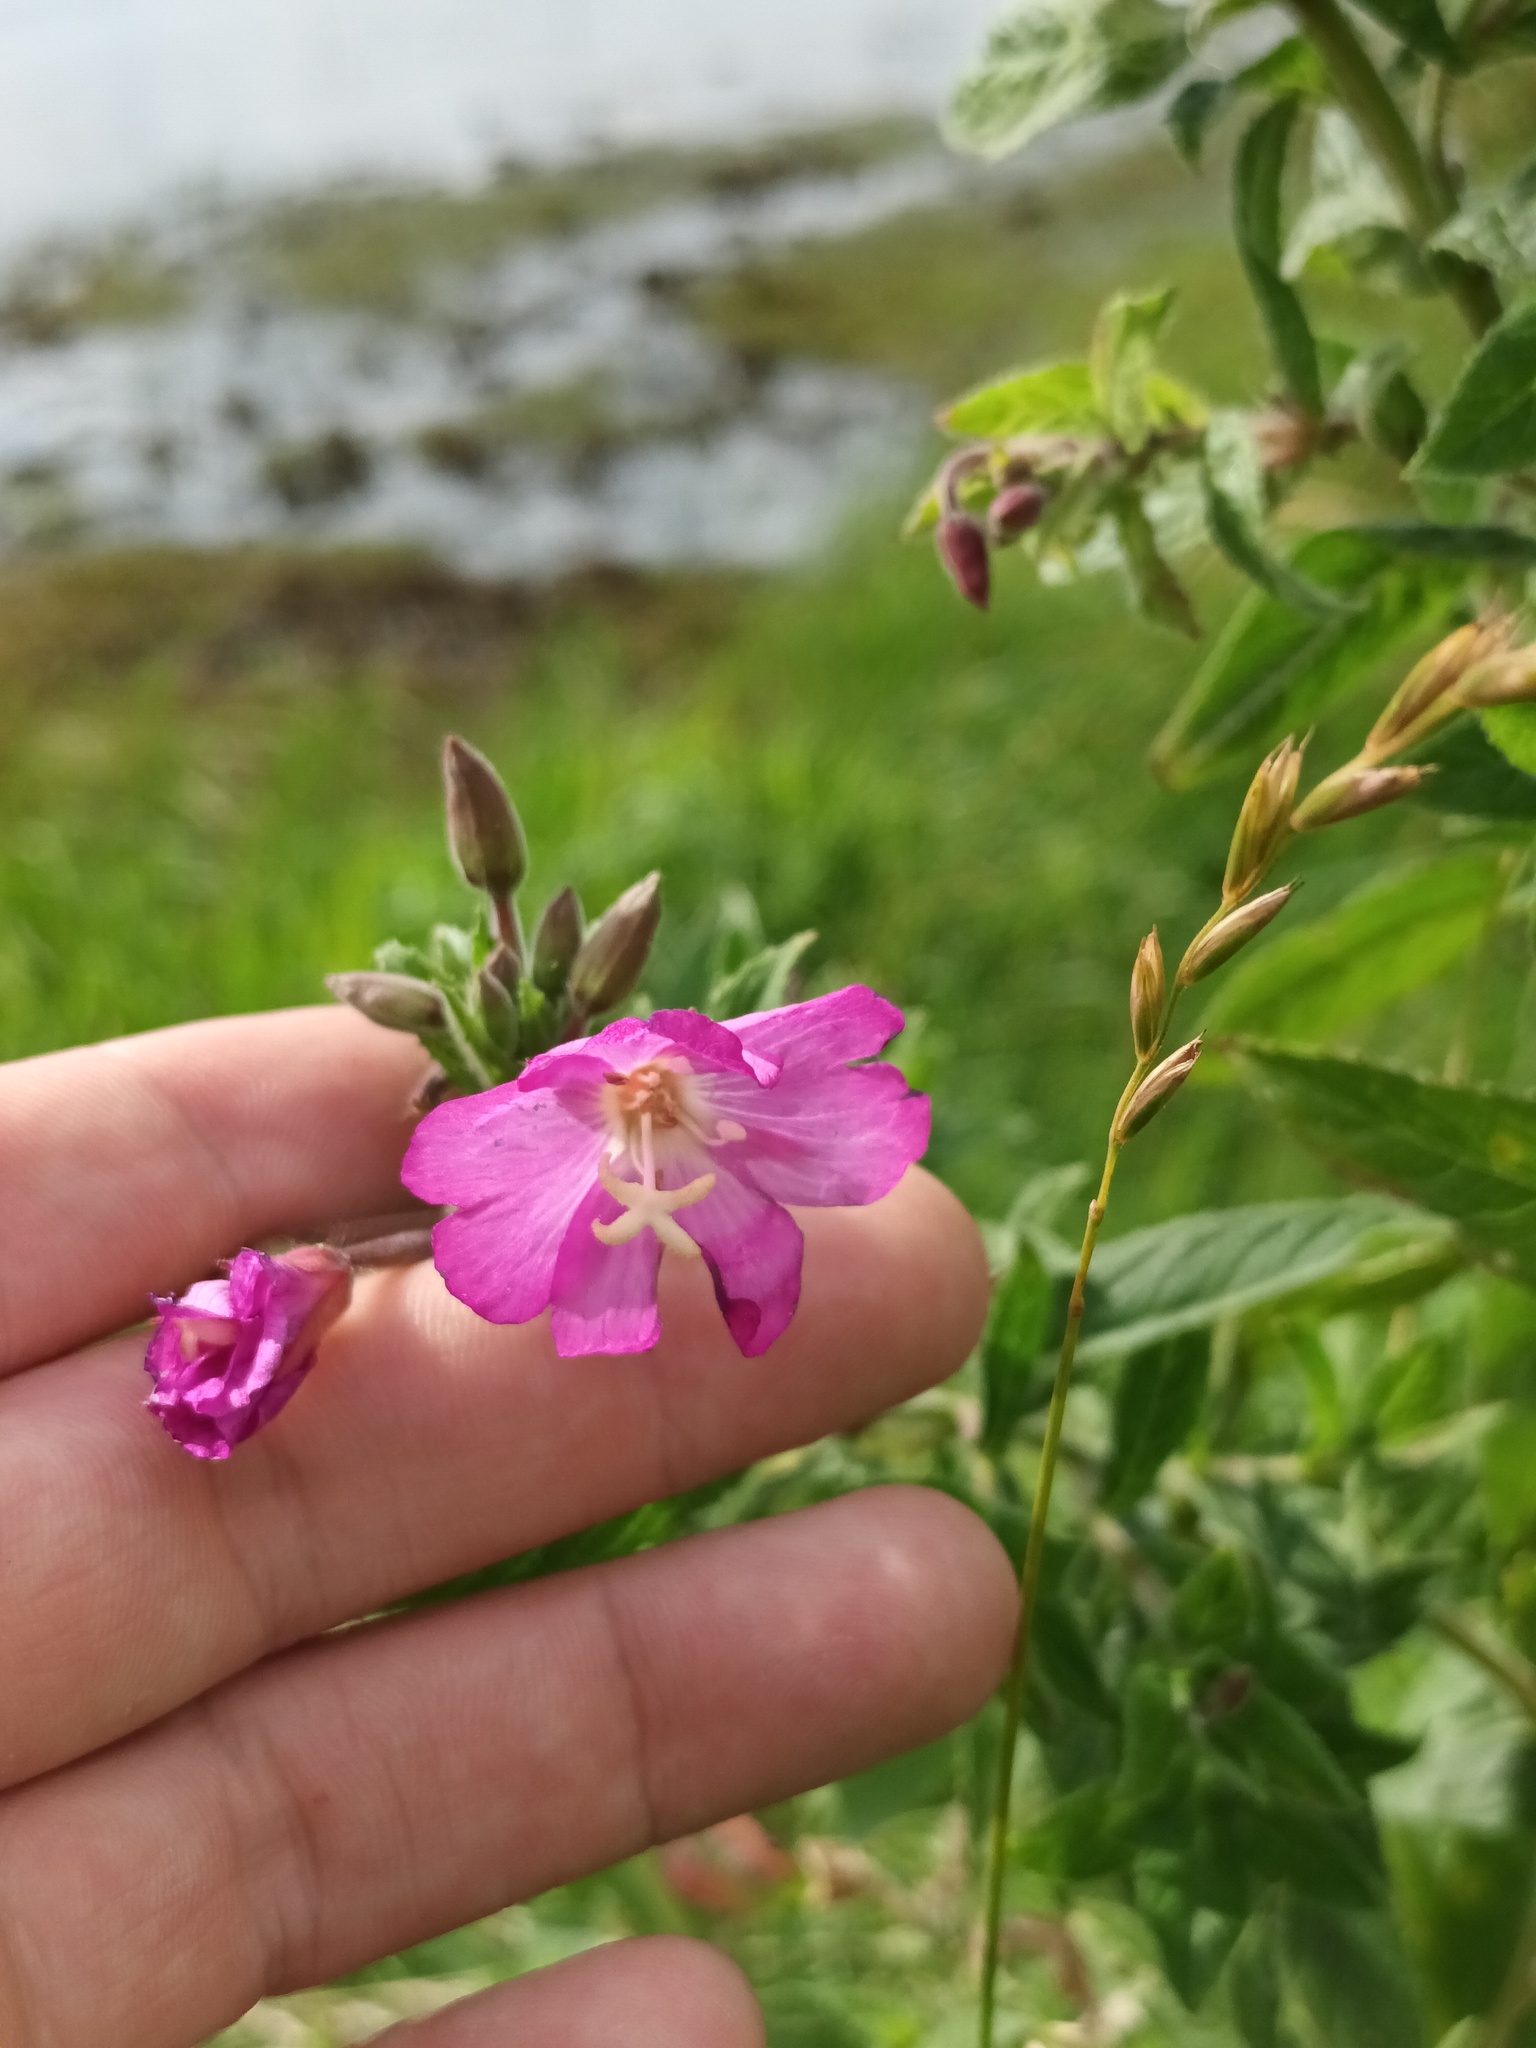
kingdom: Plantae
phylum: Tracheophyta
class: Magnoliopsida
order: Myrtales
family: Onagraceae
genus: Epilobium
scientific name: Epilobium hirsutum
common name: Great willowherb
